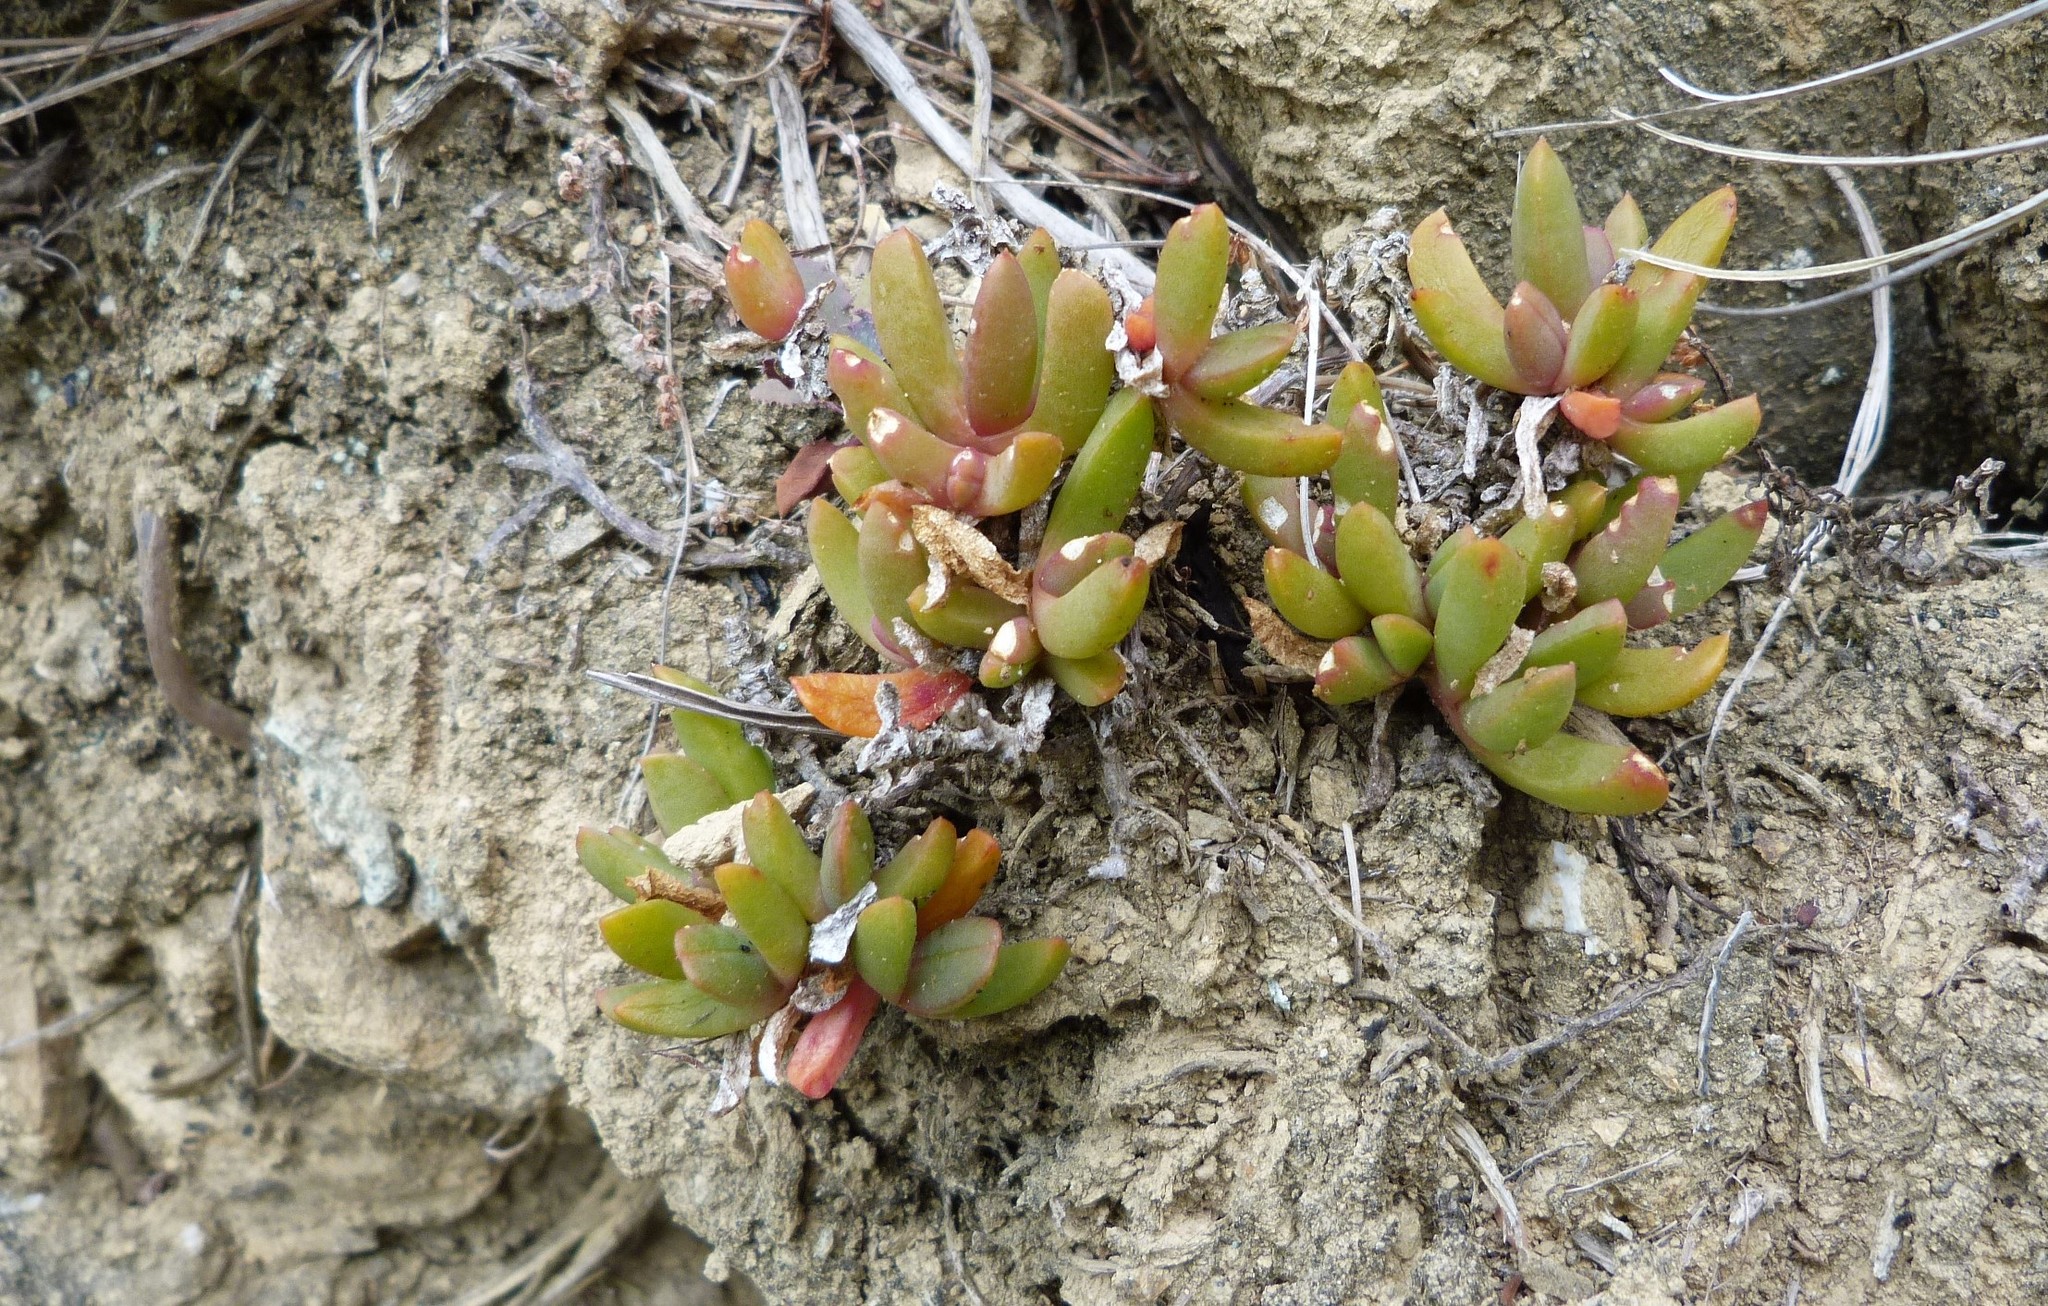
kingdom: Plantae
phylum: Tracheophyta
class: Magnoliopsida
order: Caryophyllales
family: Aizoaceae
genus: Disphyma
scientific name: Disphyma australe
